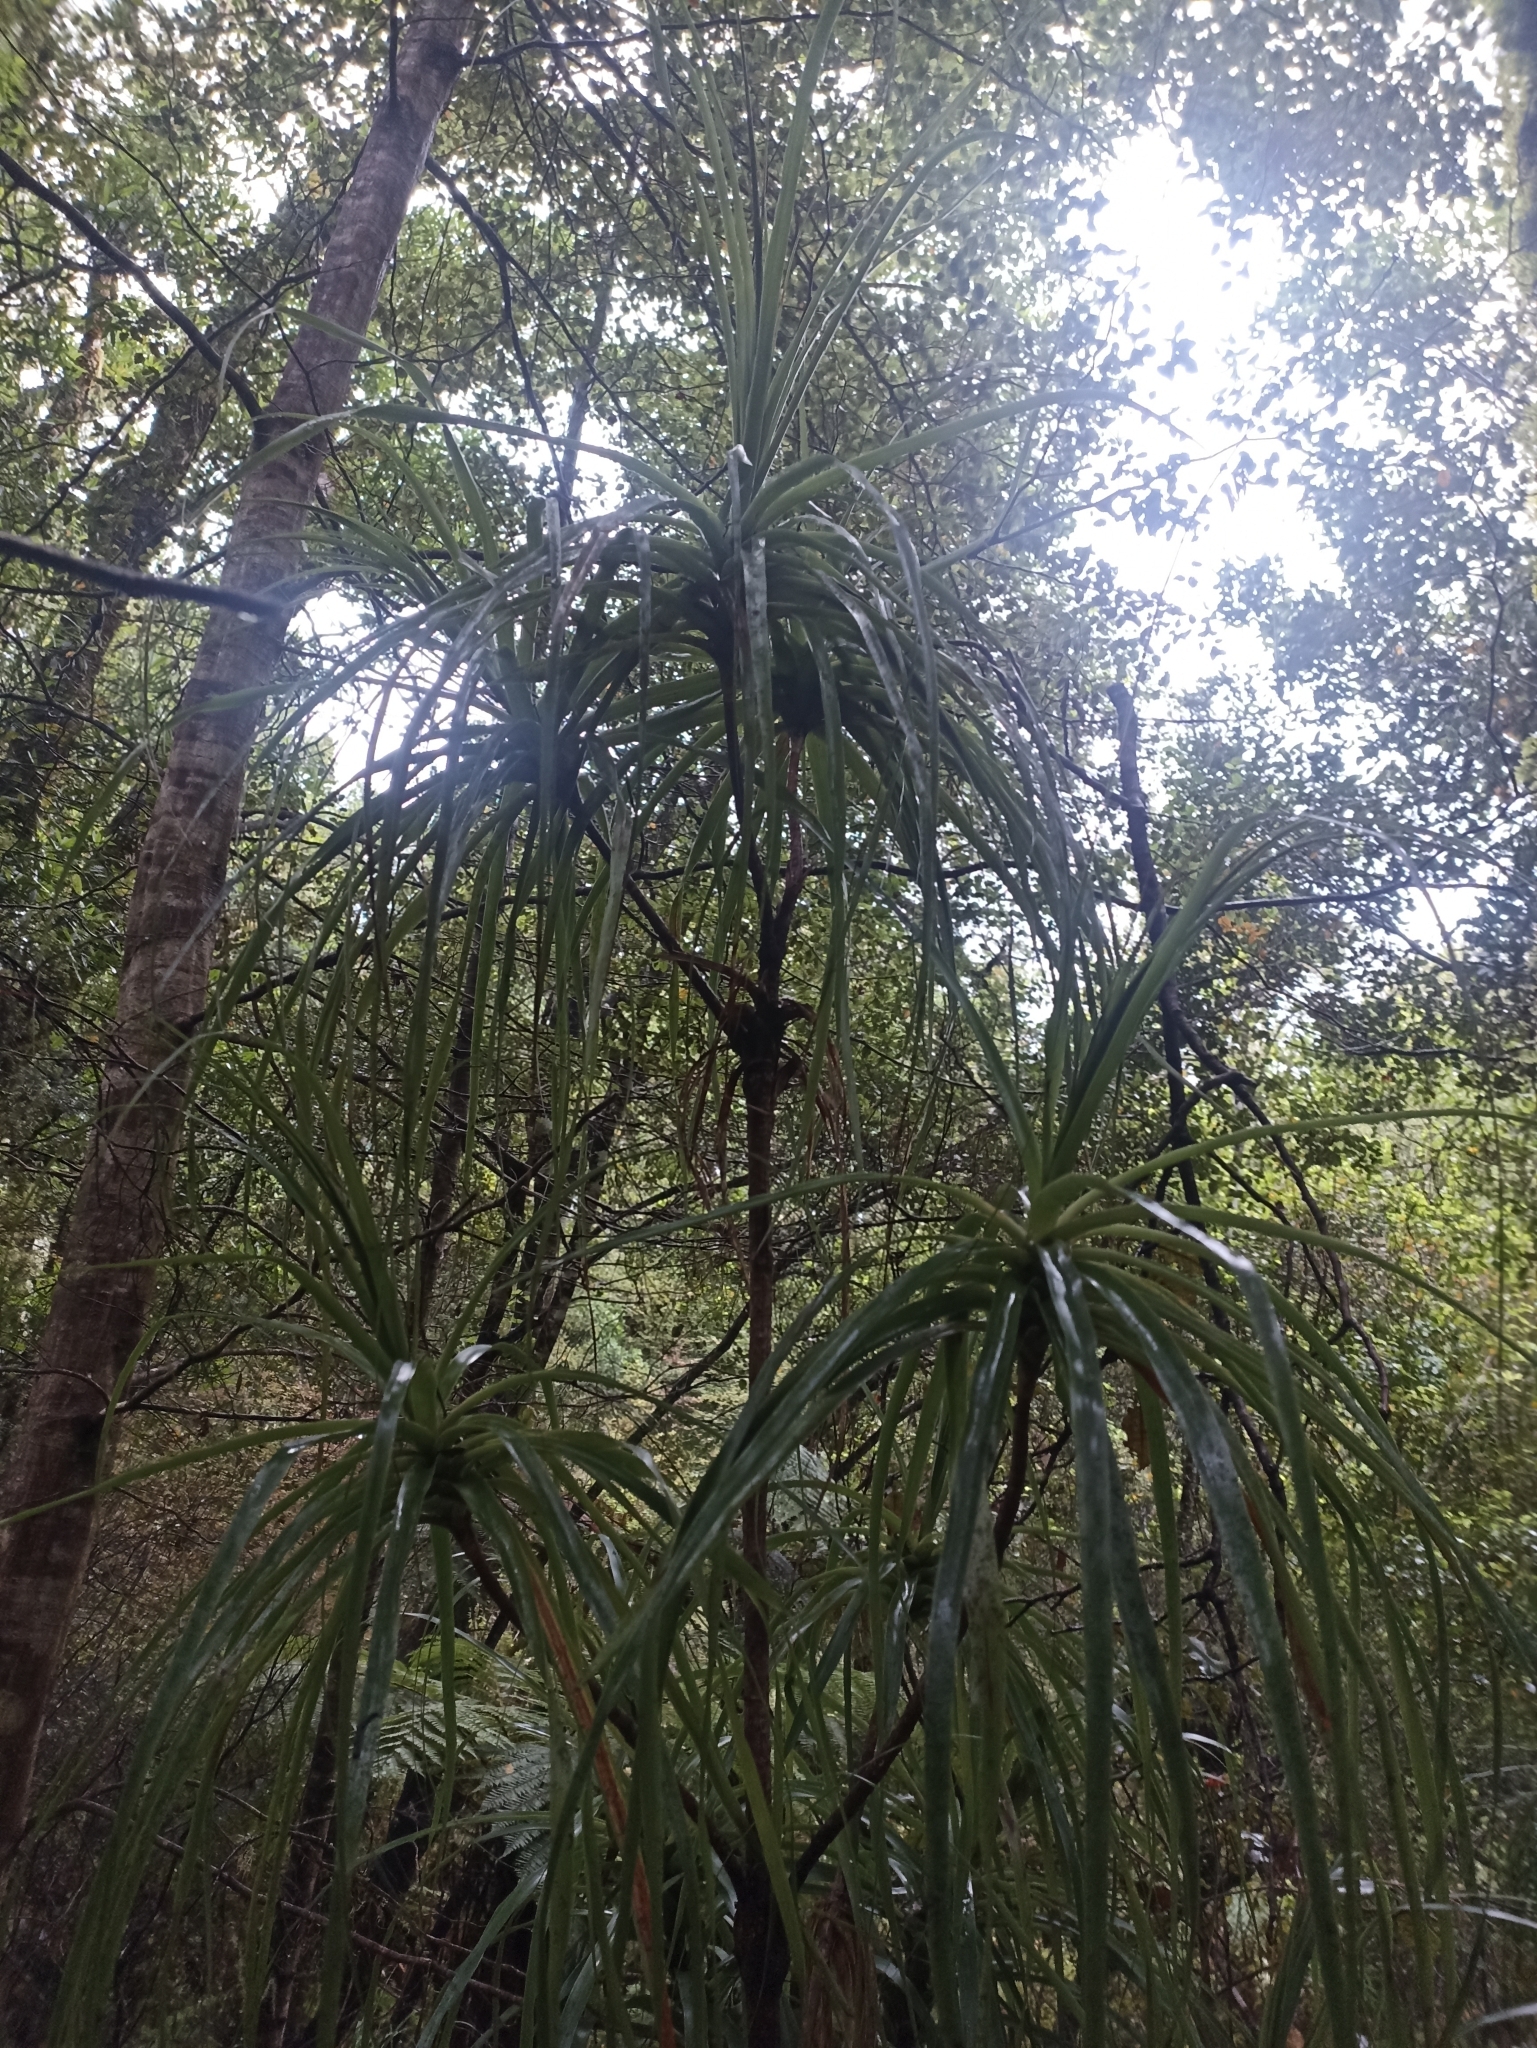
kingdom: Plantae
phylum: Tracheophyta
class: Magnoliopsida
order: Ericales
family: Ericaceae
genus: Dracophyllum
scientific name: Dracophyllum latifolium
